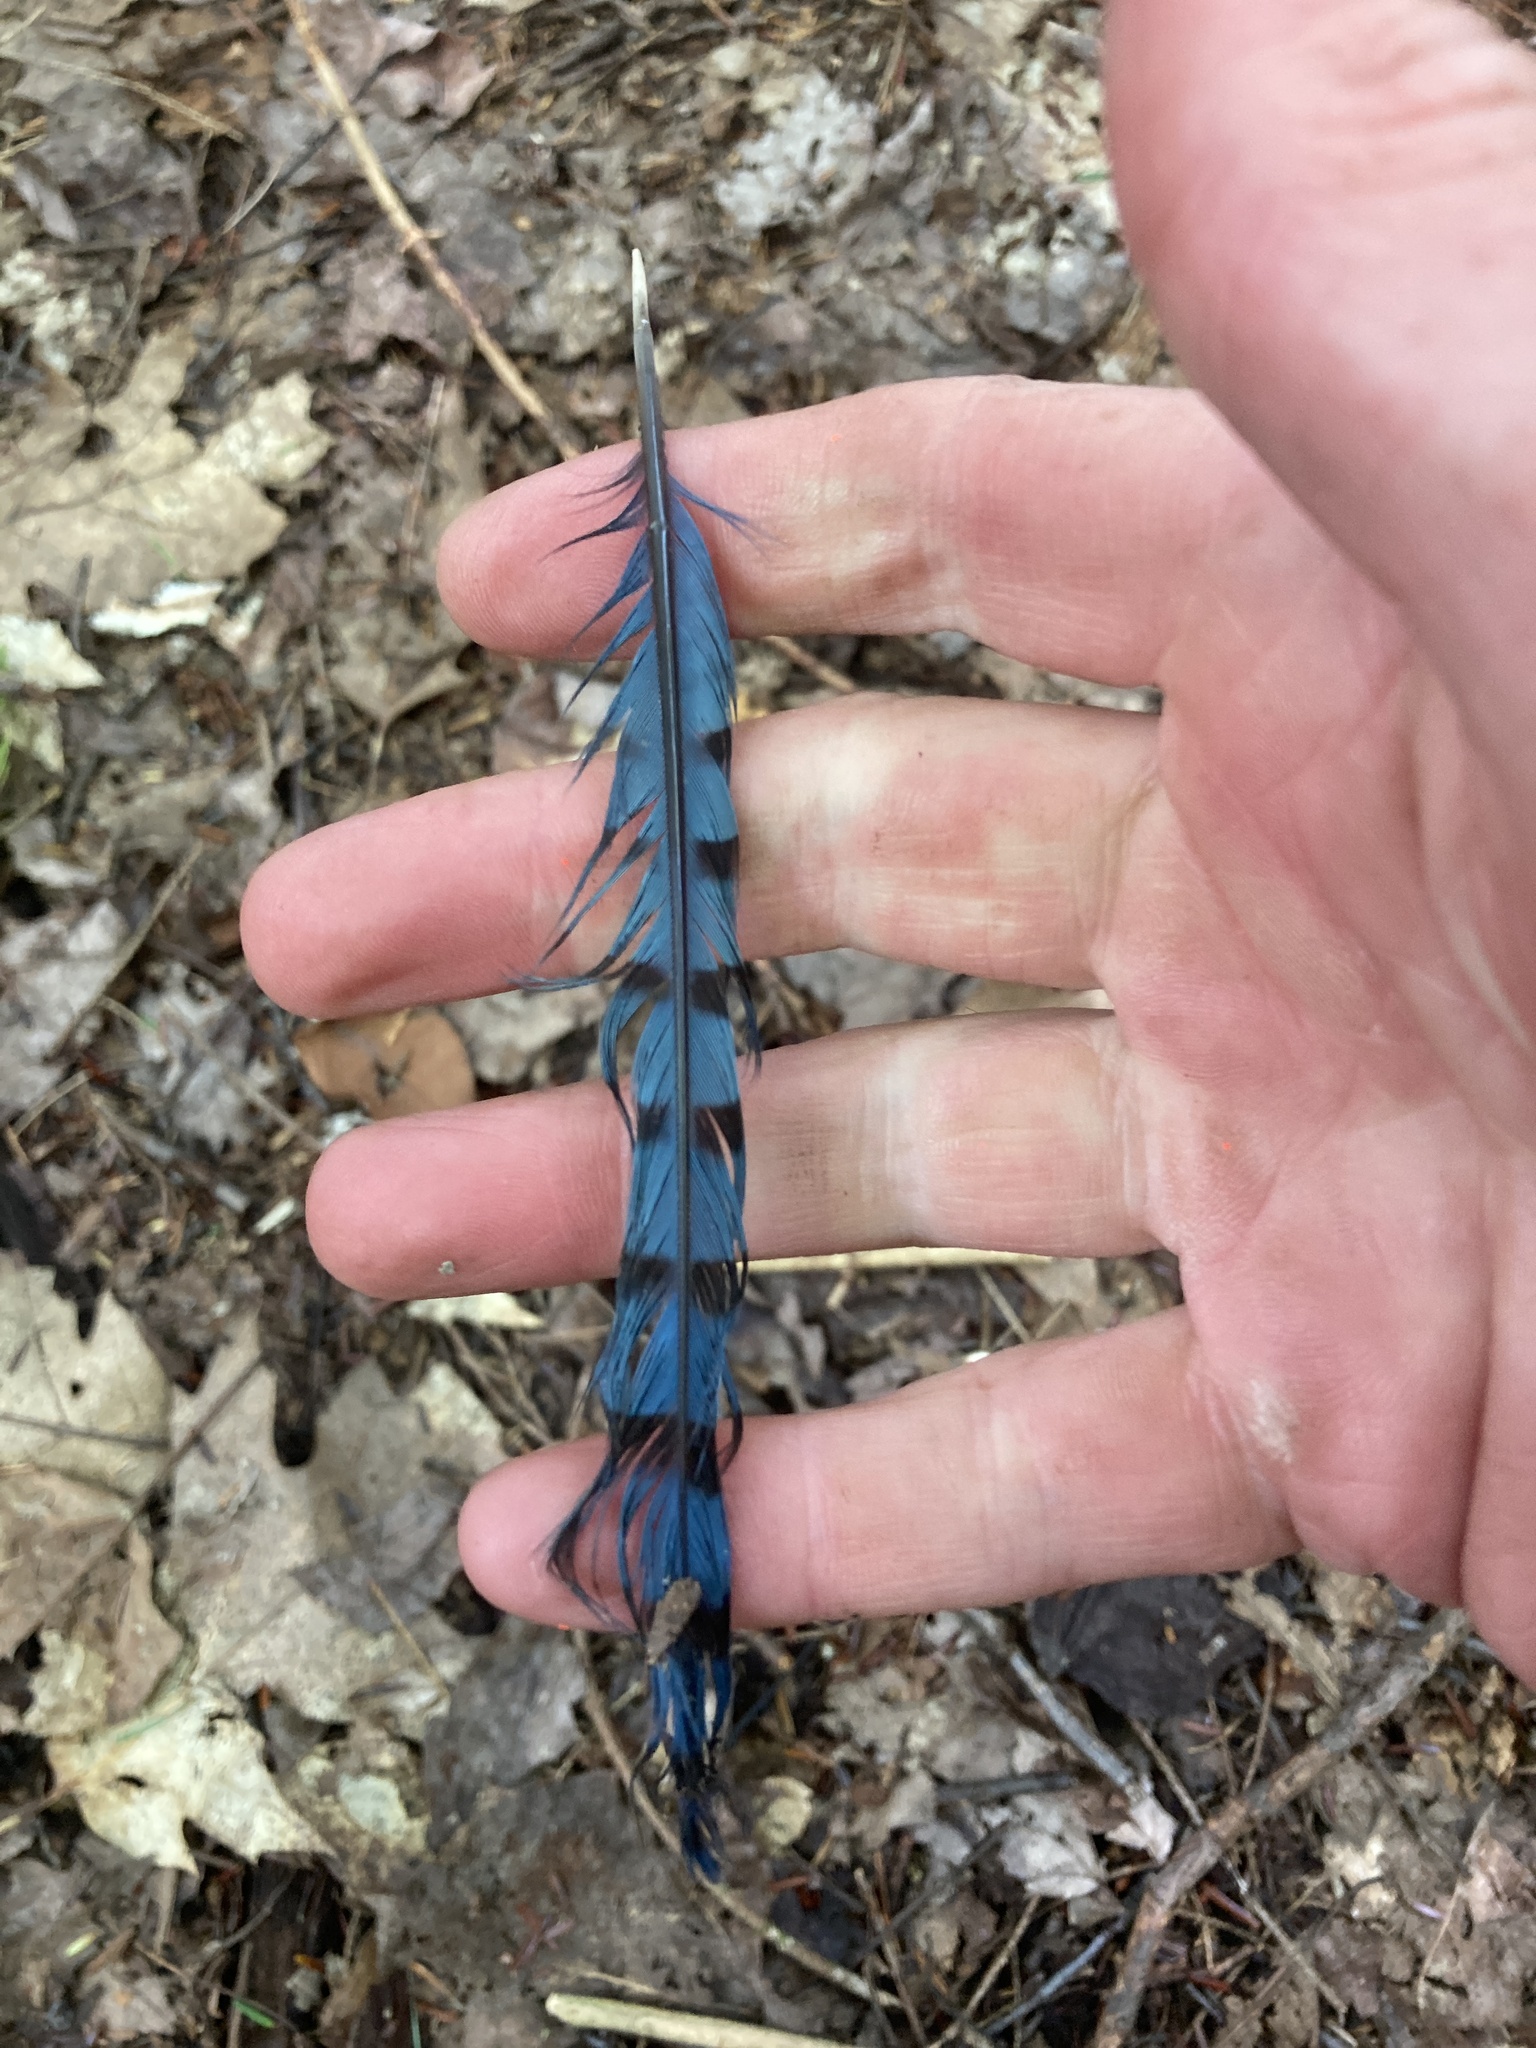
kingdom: Animalia
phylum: Chordata
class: Aves
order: Passeriformes
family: Corvidae
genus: Cyanocitta
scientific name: Cyanocitta cristata
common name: Blue jay
